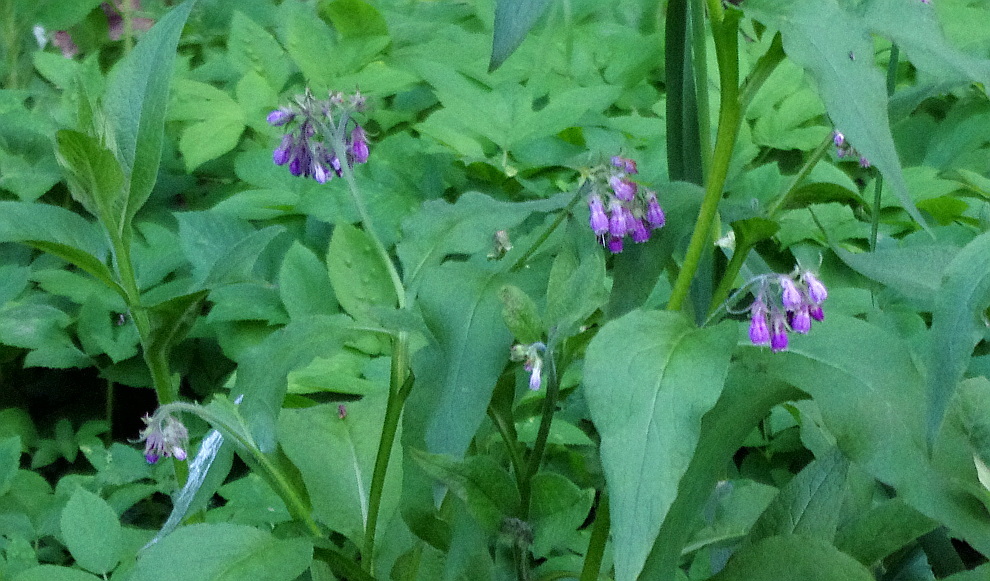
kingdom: Plantae
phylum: Tracheophyta
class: Magnoliopsida
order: Boraginales
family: Boraginaceae
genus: Symphytum
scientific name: Symphytum officinale
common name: Common comfrey
